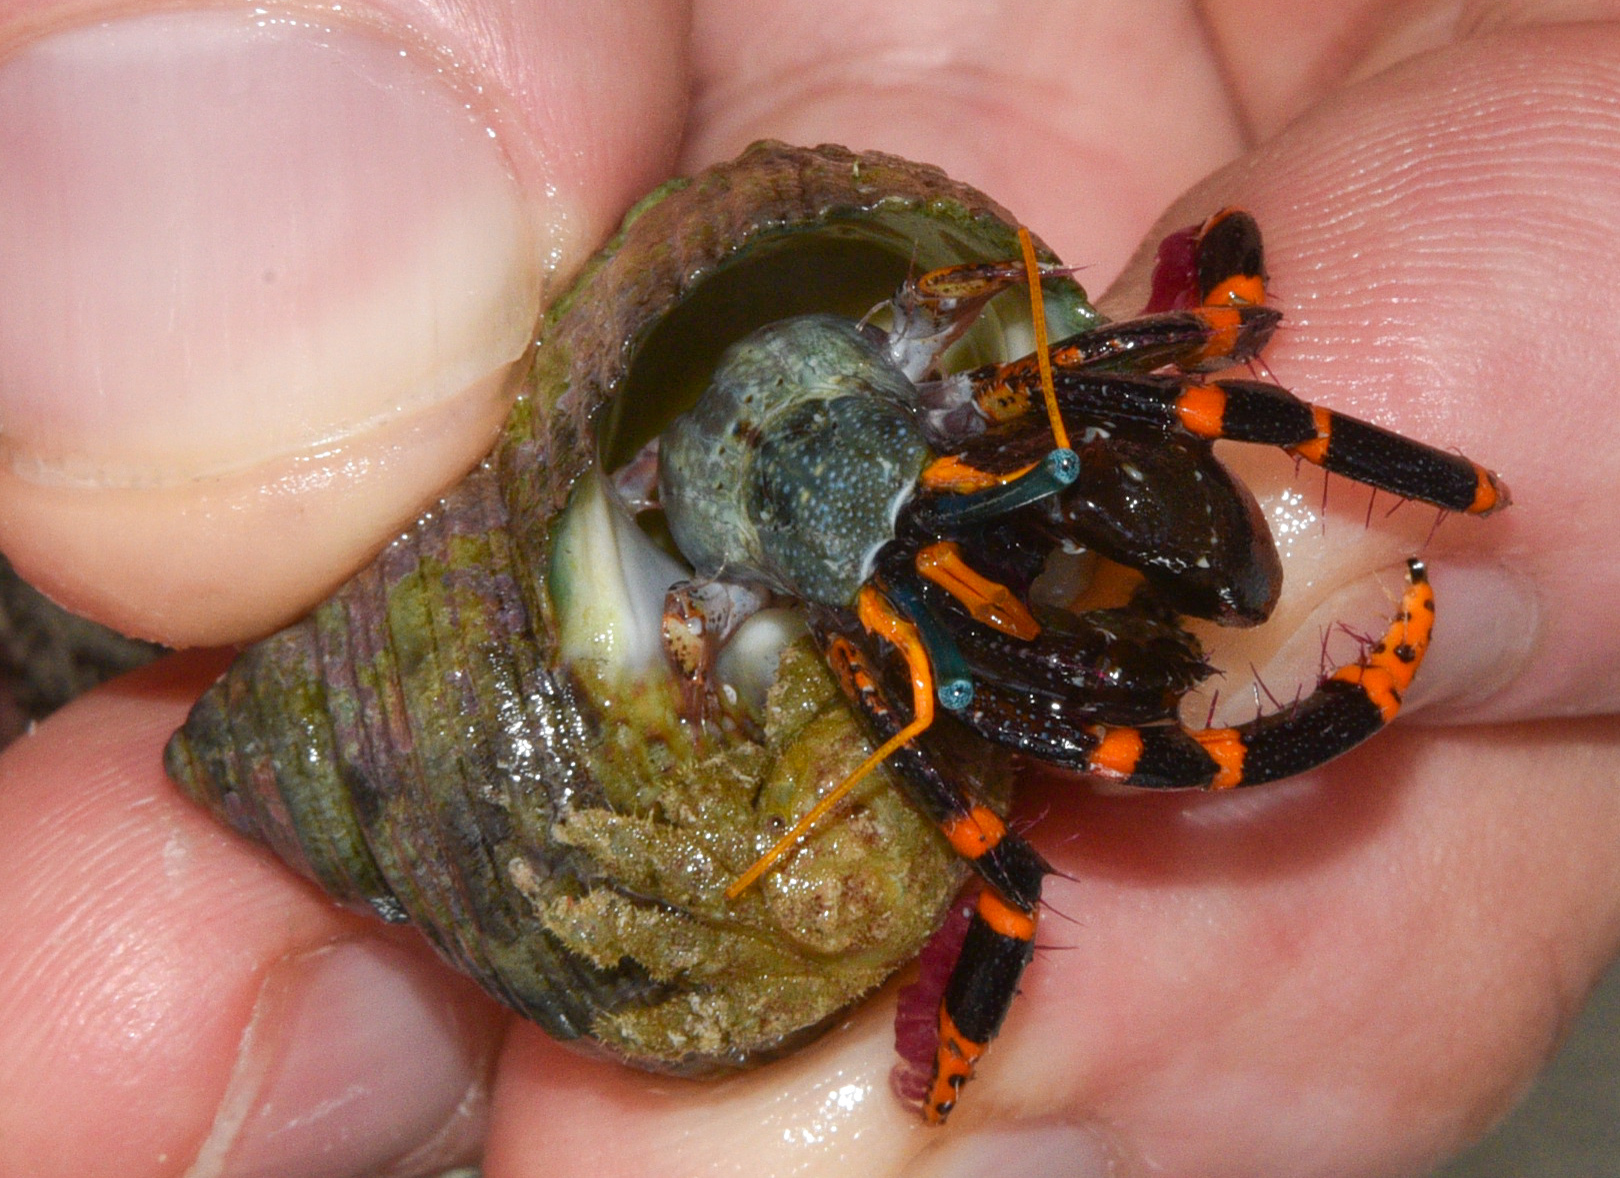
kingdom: Animalia
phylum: Arthropoda
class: Malacostraca
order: Decapoda
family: Diogenidae
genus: Calcinus
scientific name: Calcinus pictus
